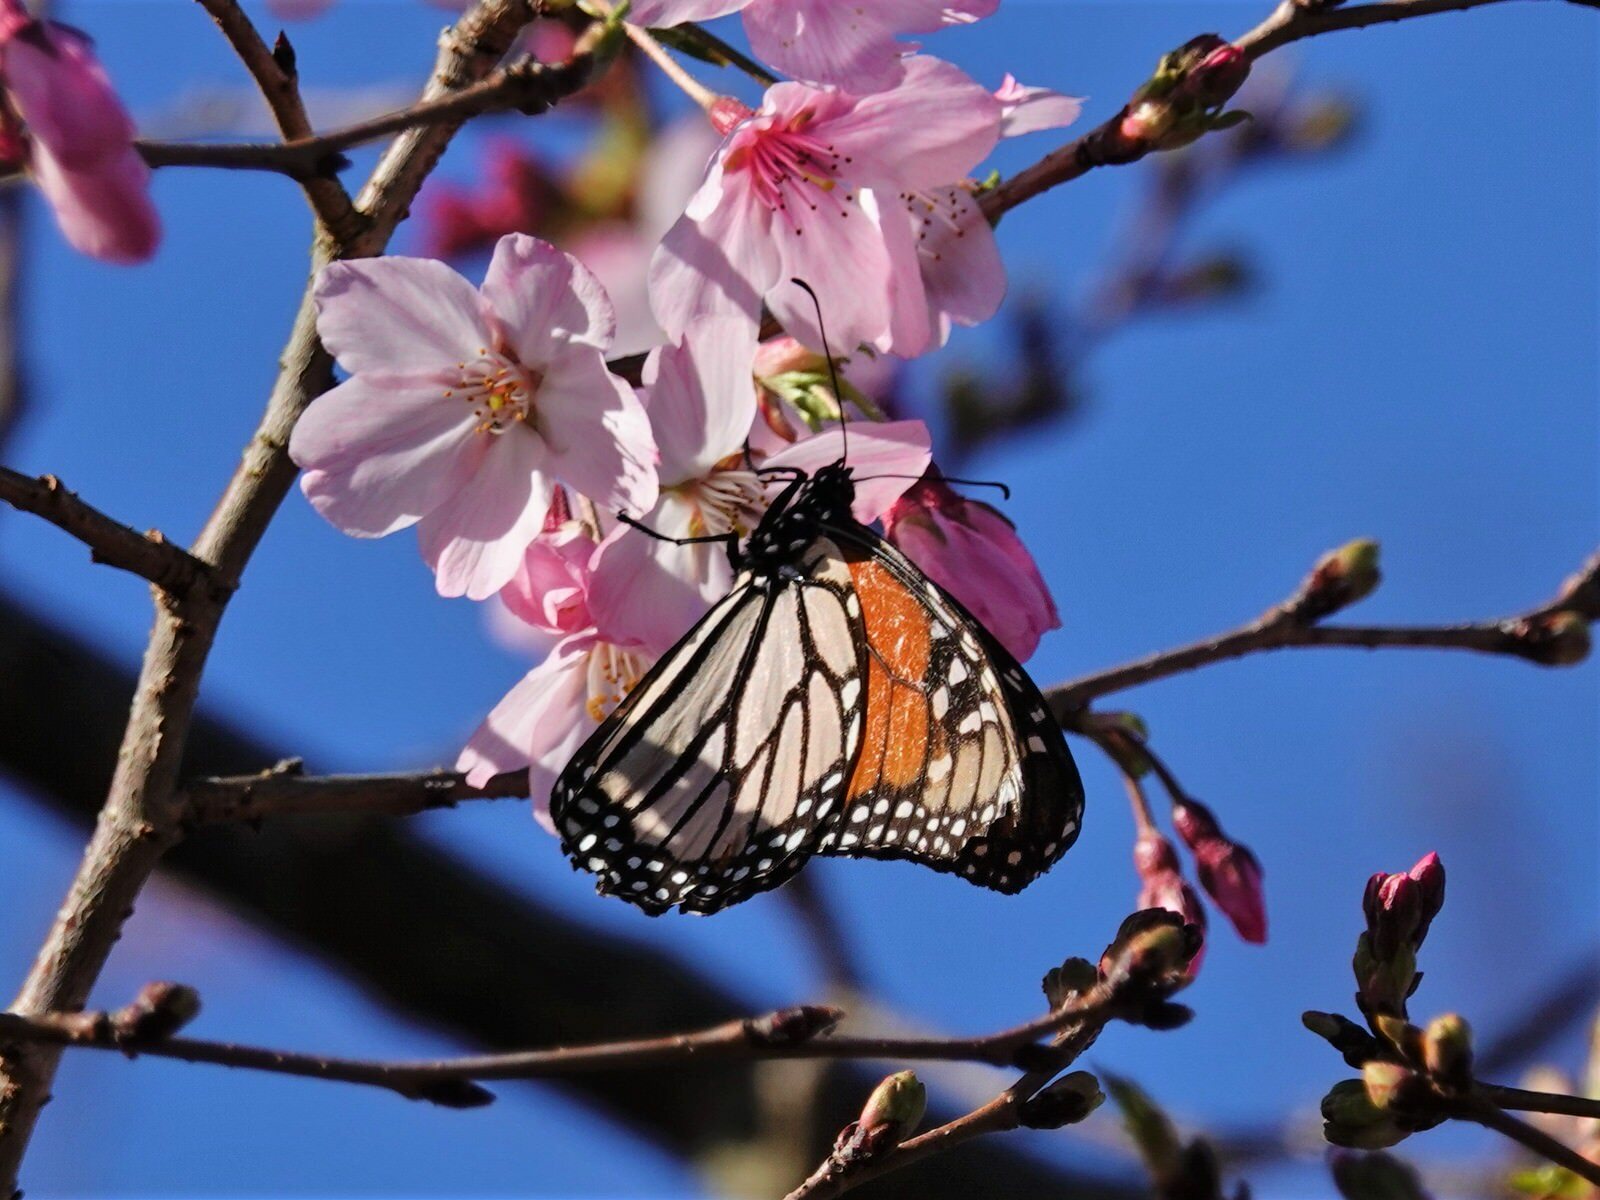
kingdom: Animalia
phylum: Arthropoda
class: Insecta
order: Lepidoptera
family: Nymphalidae
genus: Danaus
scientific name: Danaus plexippus
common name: Monarch
